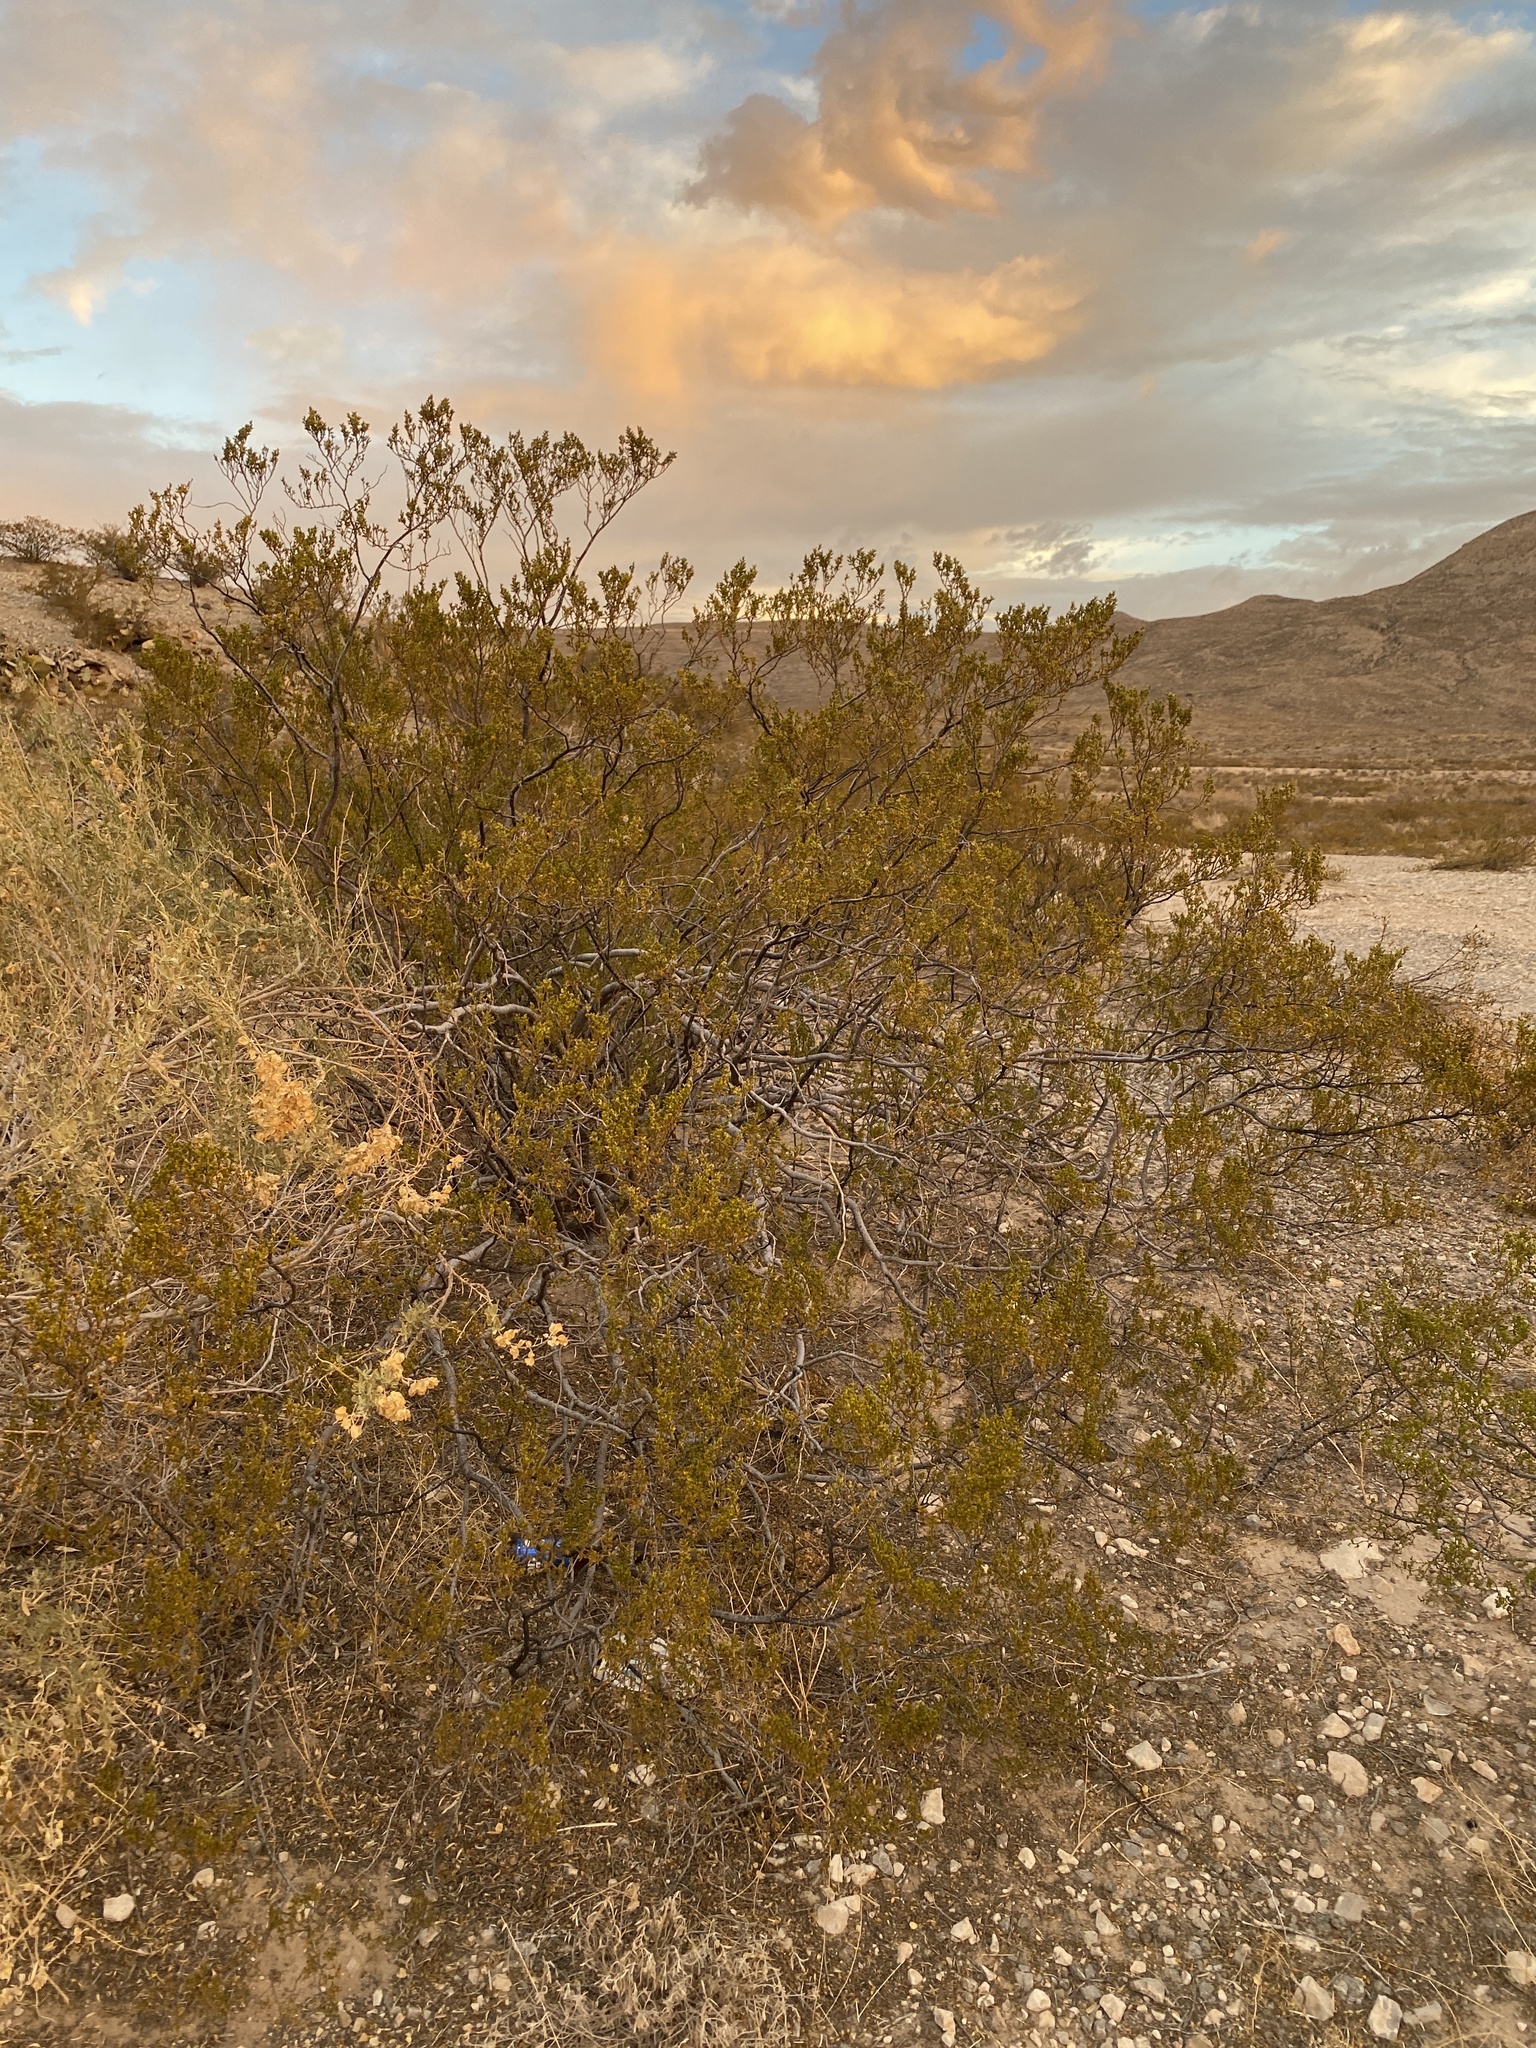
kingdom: Plantae
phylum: Tracheophyta
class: Magnoliopsida
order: Zygophyllales
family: Zygophyllaceae
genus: Larrea
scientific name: Larrea tridentata
